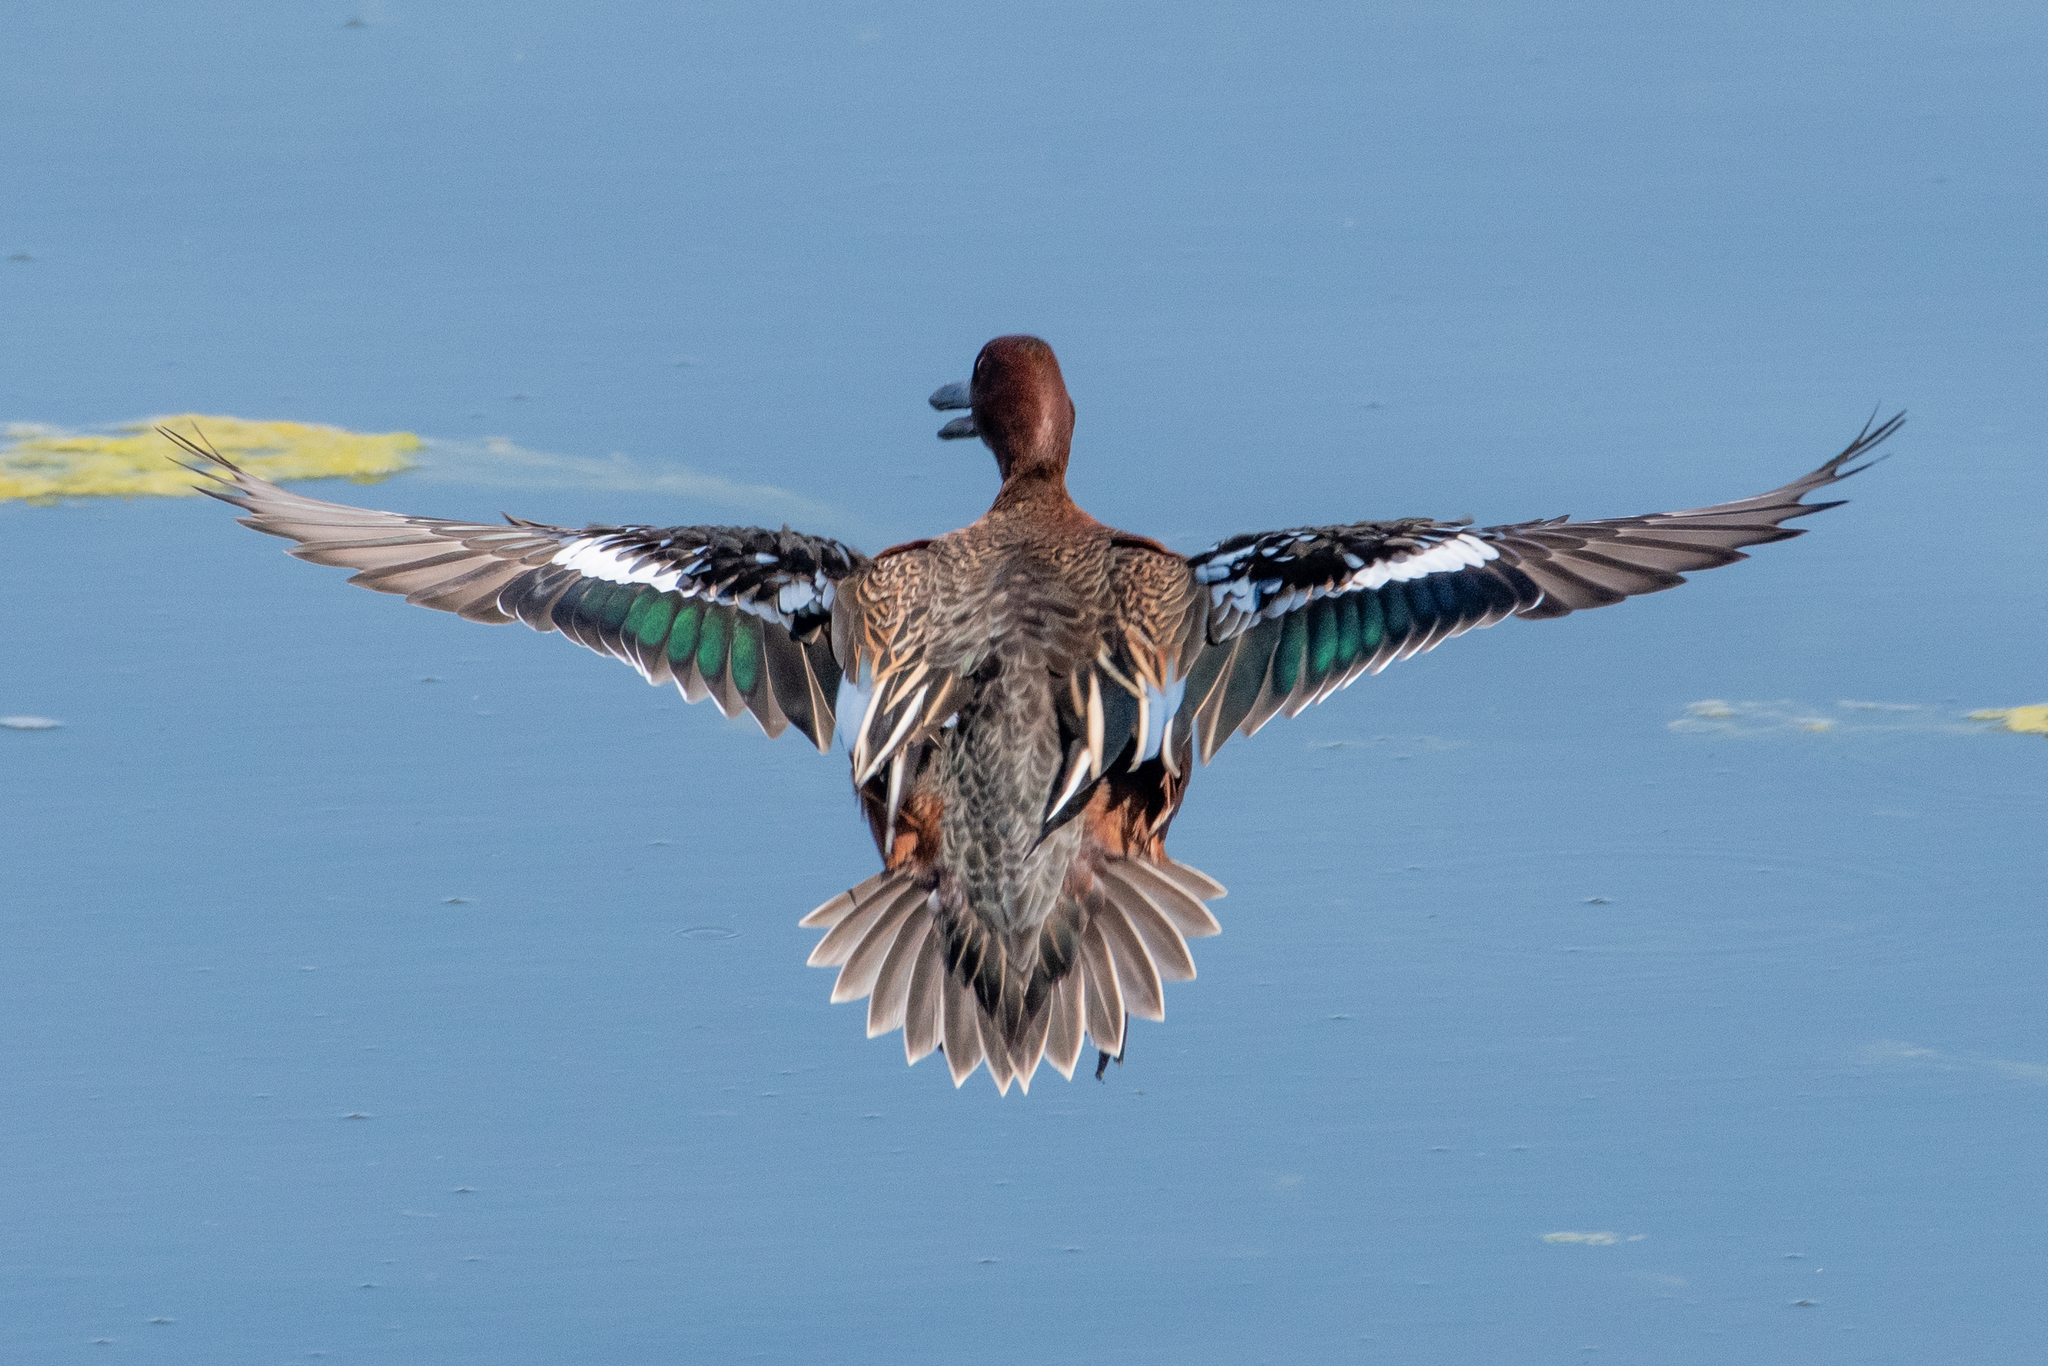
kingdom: Animalia
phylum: Chordata
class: Aves
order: Anseriformes
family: Anatidae
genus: Spatula
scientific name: Spatula cyanoptera
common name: Cinnamon teal
